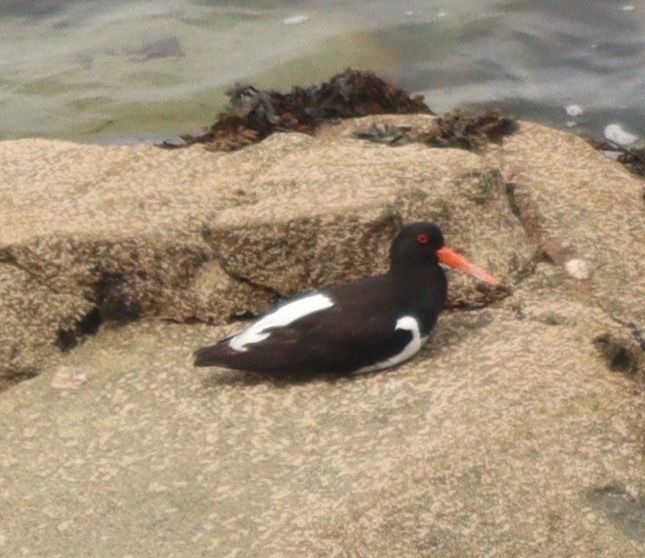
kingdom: Animalia
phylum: Chordata
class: Aves
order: Charadriiformes
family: Haematopodidae
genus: Haematopus
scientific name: Haematopus ostralegus
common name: Eurasian oystercatcher
